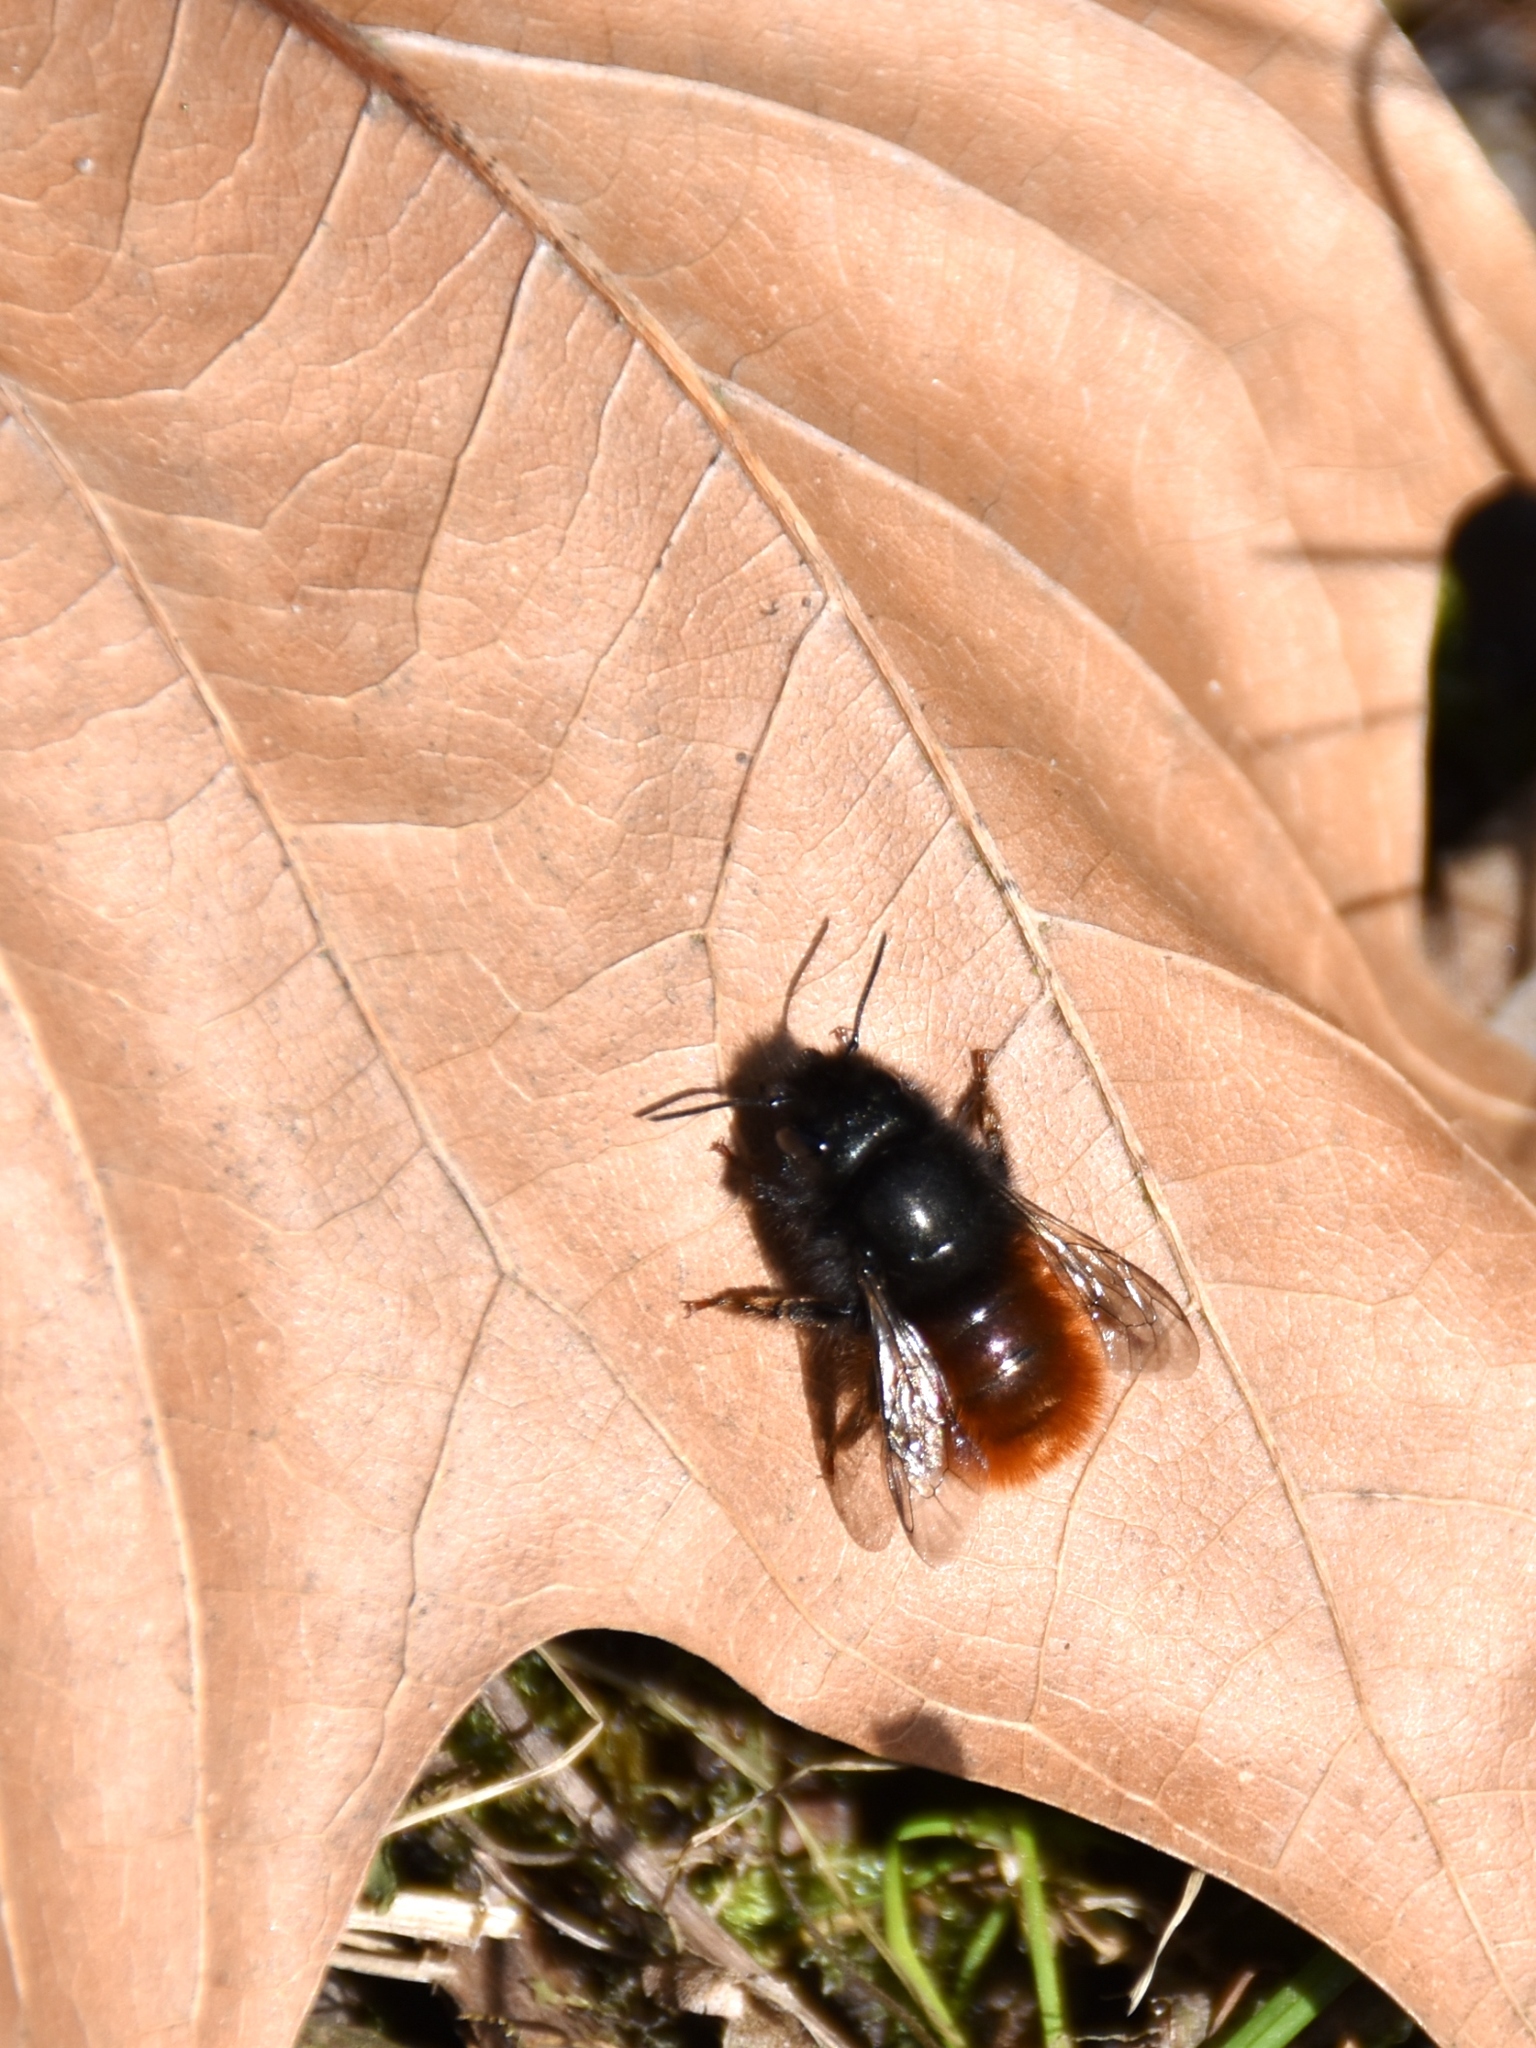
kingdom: Animalia
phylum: Arthropoda
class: Insecta
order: Hymenoptera
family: Megachilidae
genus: Osmia
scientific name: Osmia cornuta
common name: Mason bee
